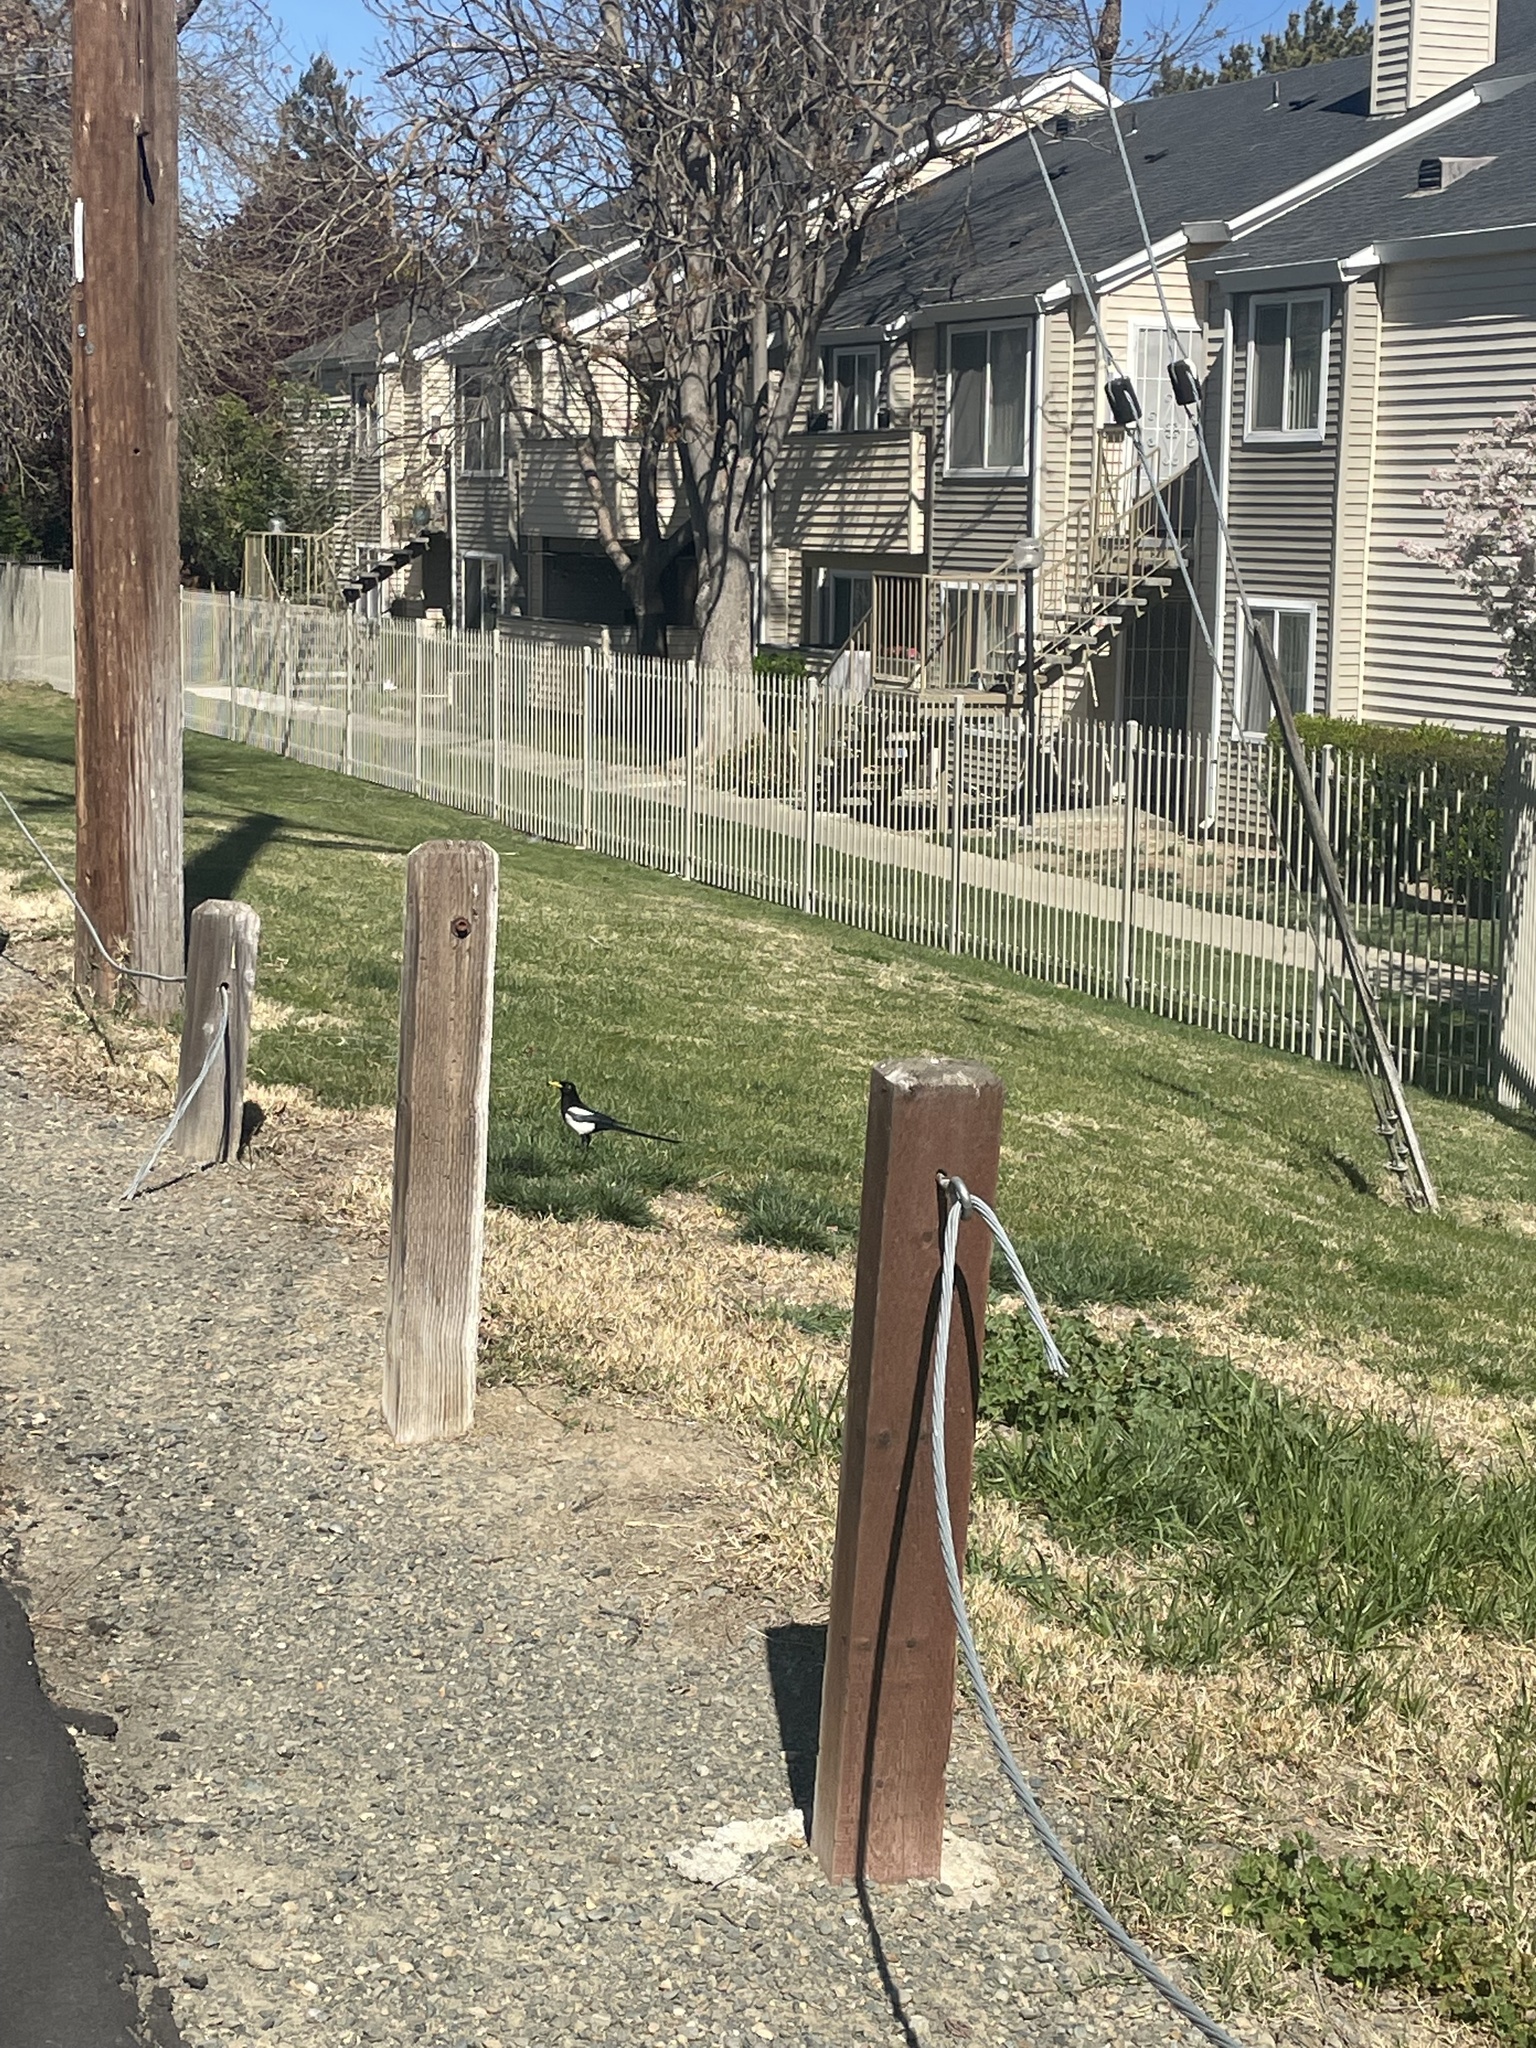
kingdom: Animalia
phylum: Chordata
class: Aves
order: Passeriformes
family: Corvidae
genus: Pica
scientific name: Pica nuttalli
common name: Yellow-billed magpie
